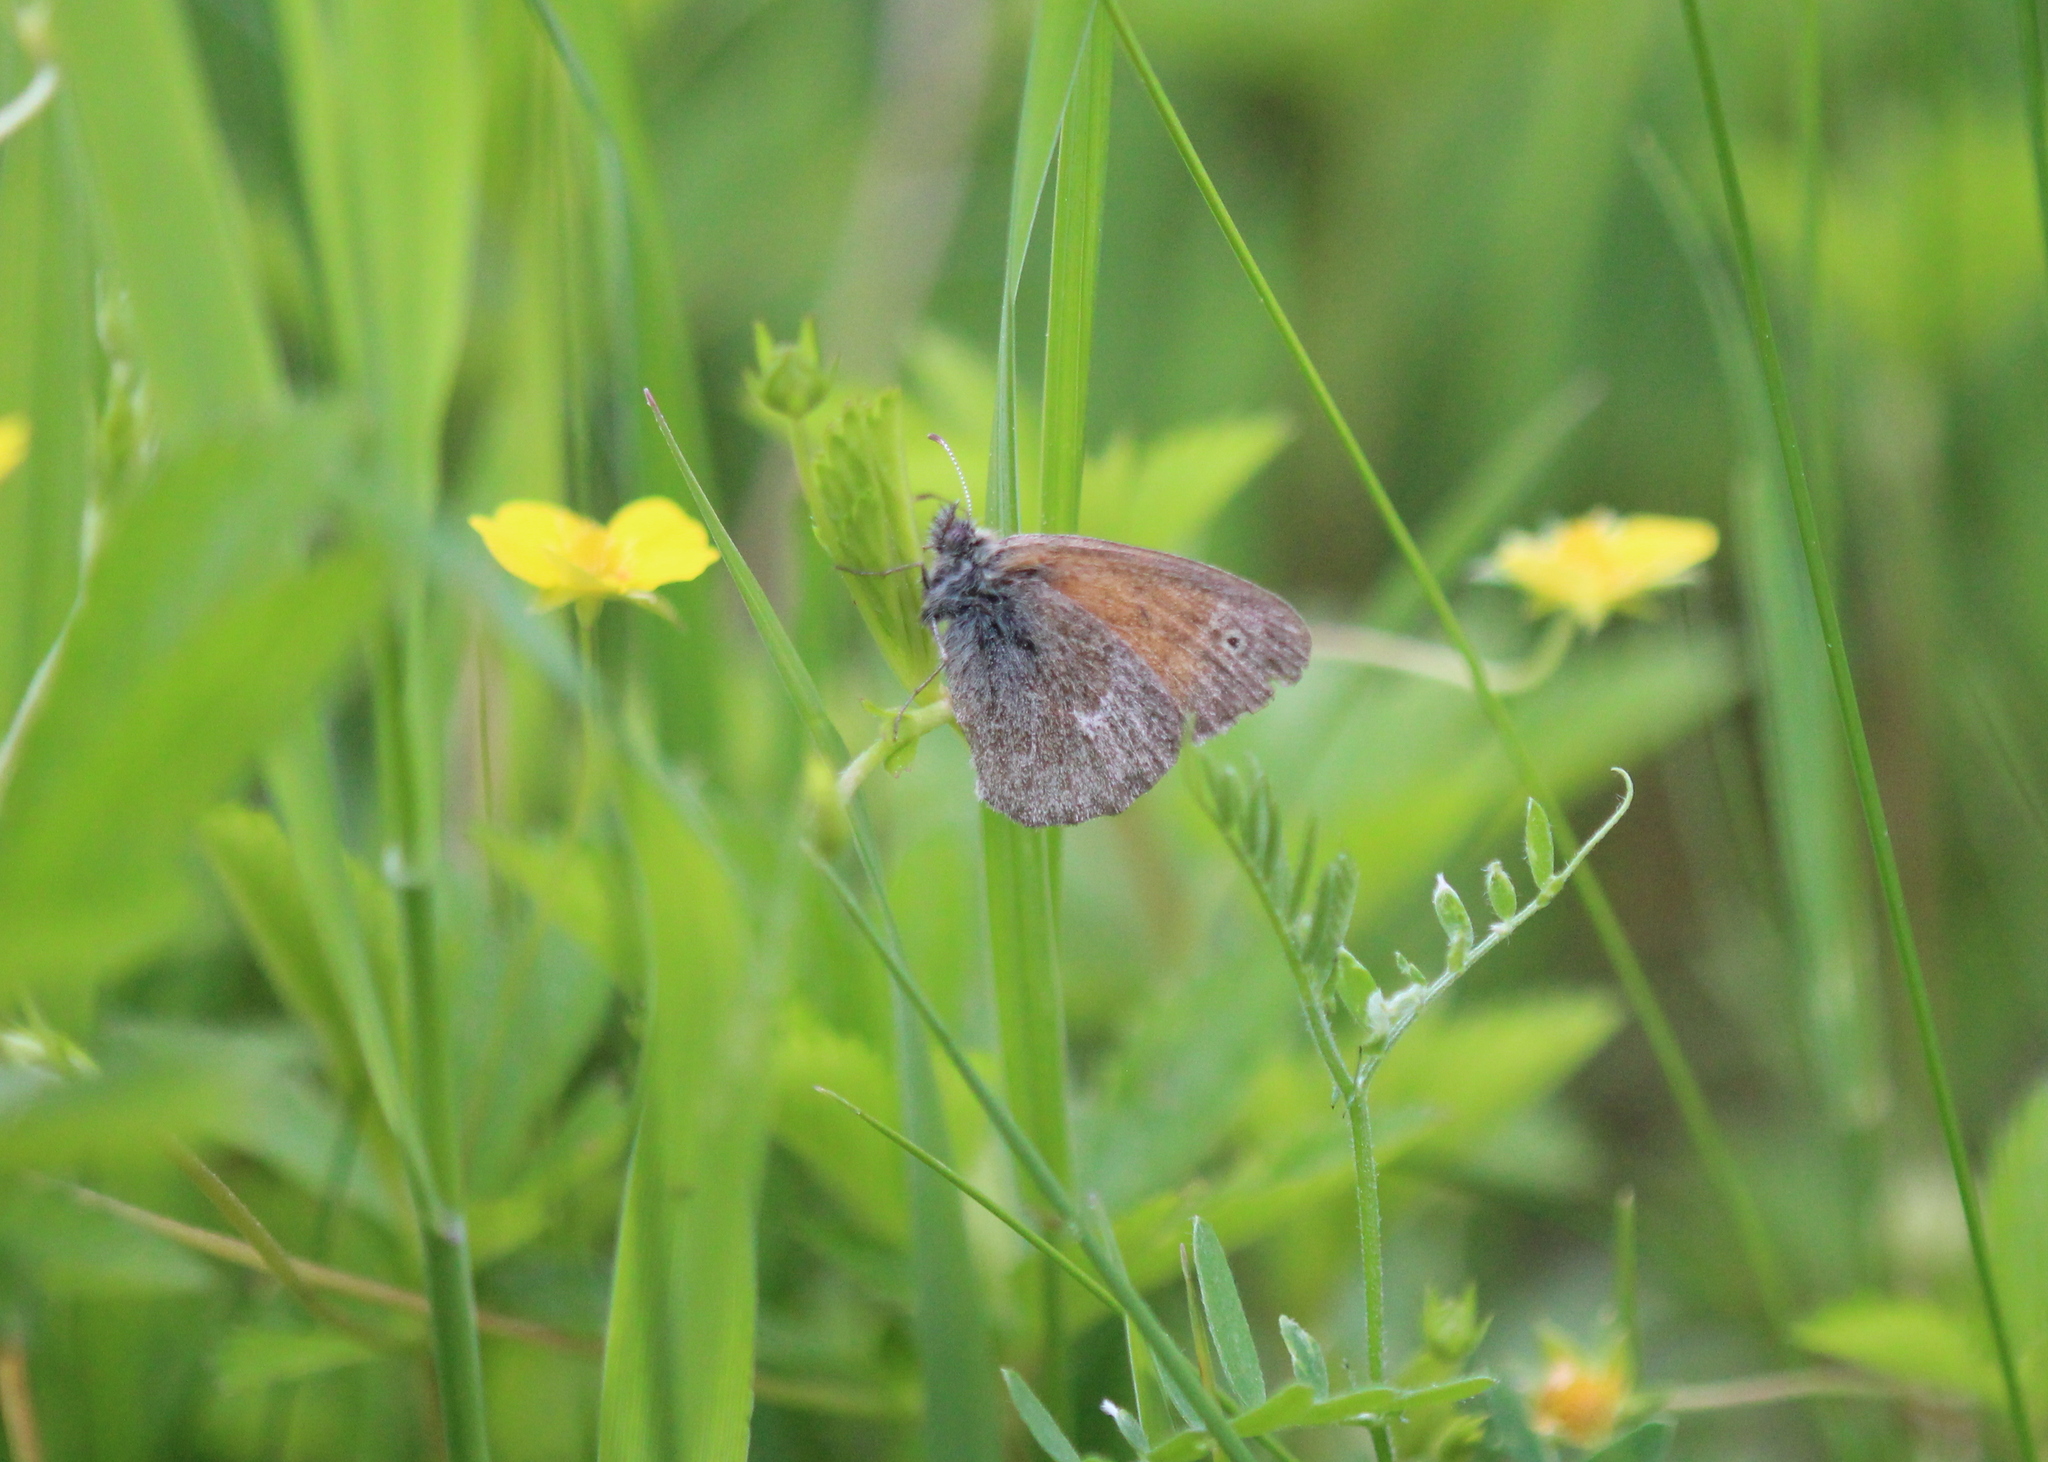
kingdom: Animalia
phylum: Arthropoda
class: Insecta
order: Lepidoptera
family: Nymphalidae
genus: Coenonympha
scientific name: Coenonympha california
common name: Common ringlet
